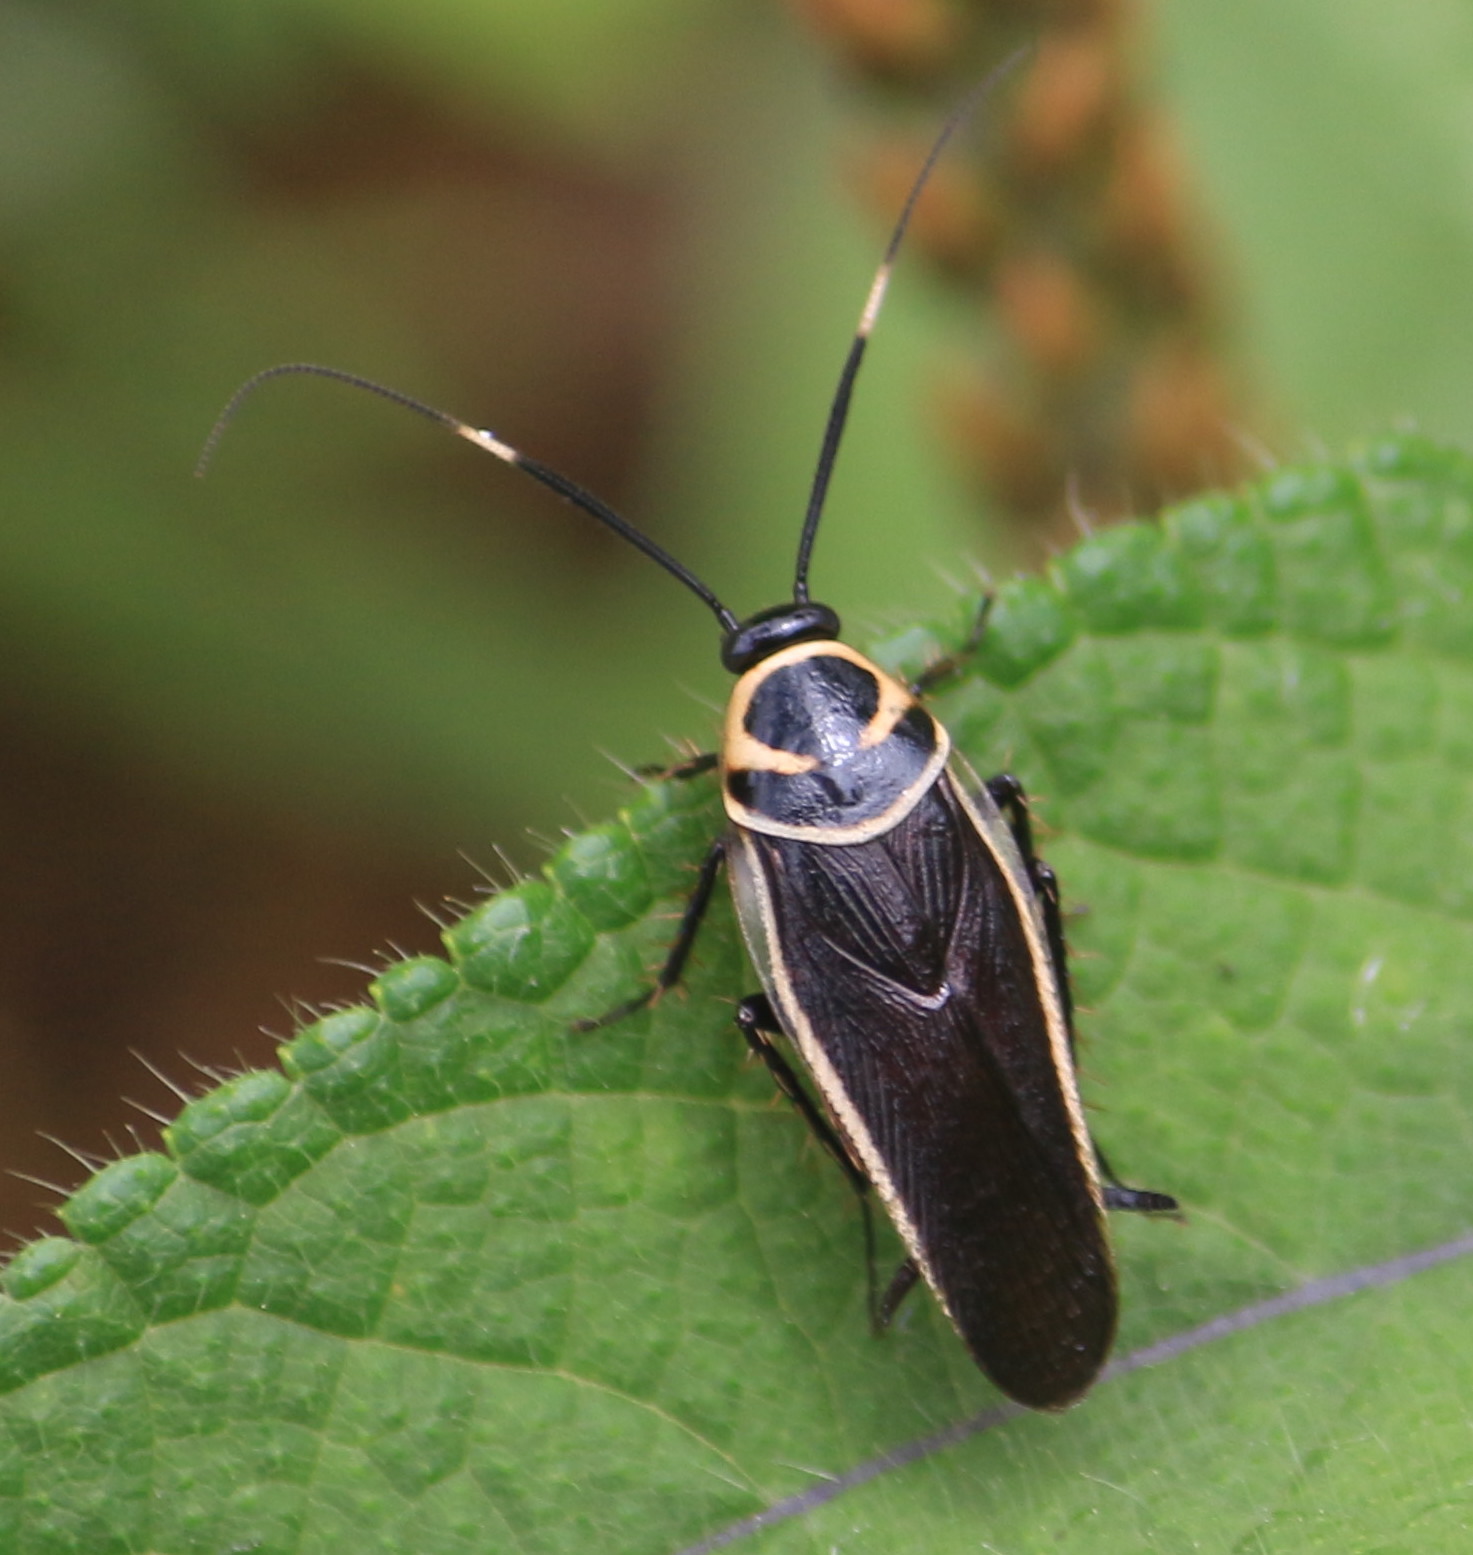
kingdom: Animalia
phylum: Arthropoda
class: Insecta
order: Blattodea
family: Ectobiidae
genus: Pseudomops
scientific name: Pseudomops cinctus
